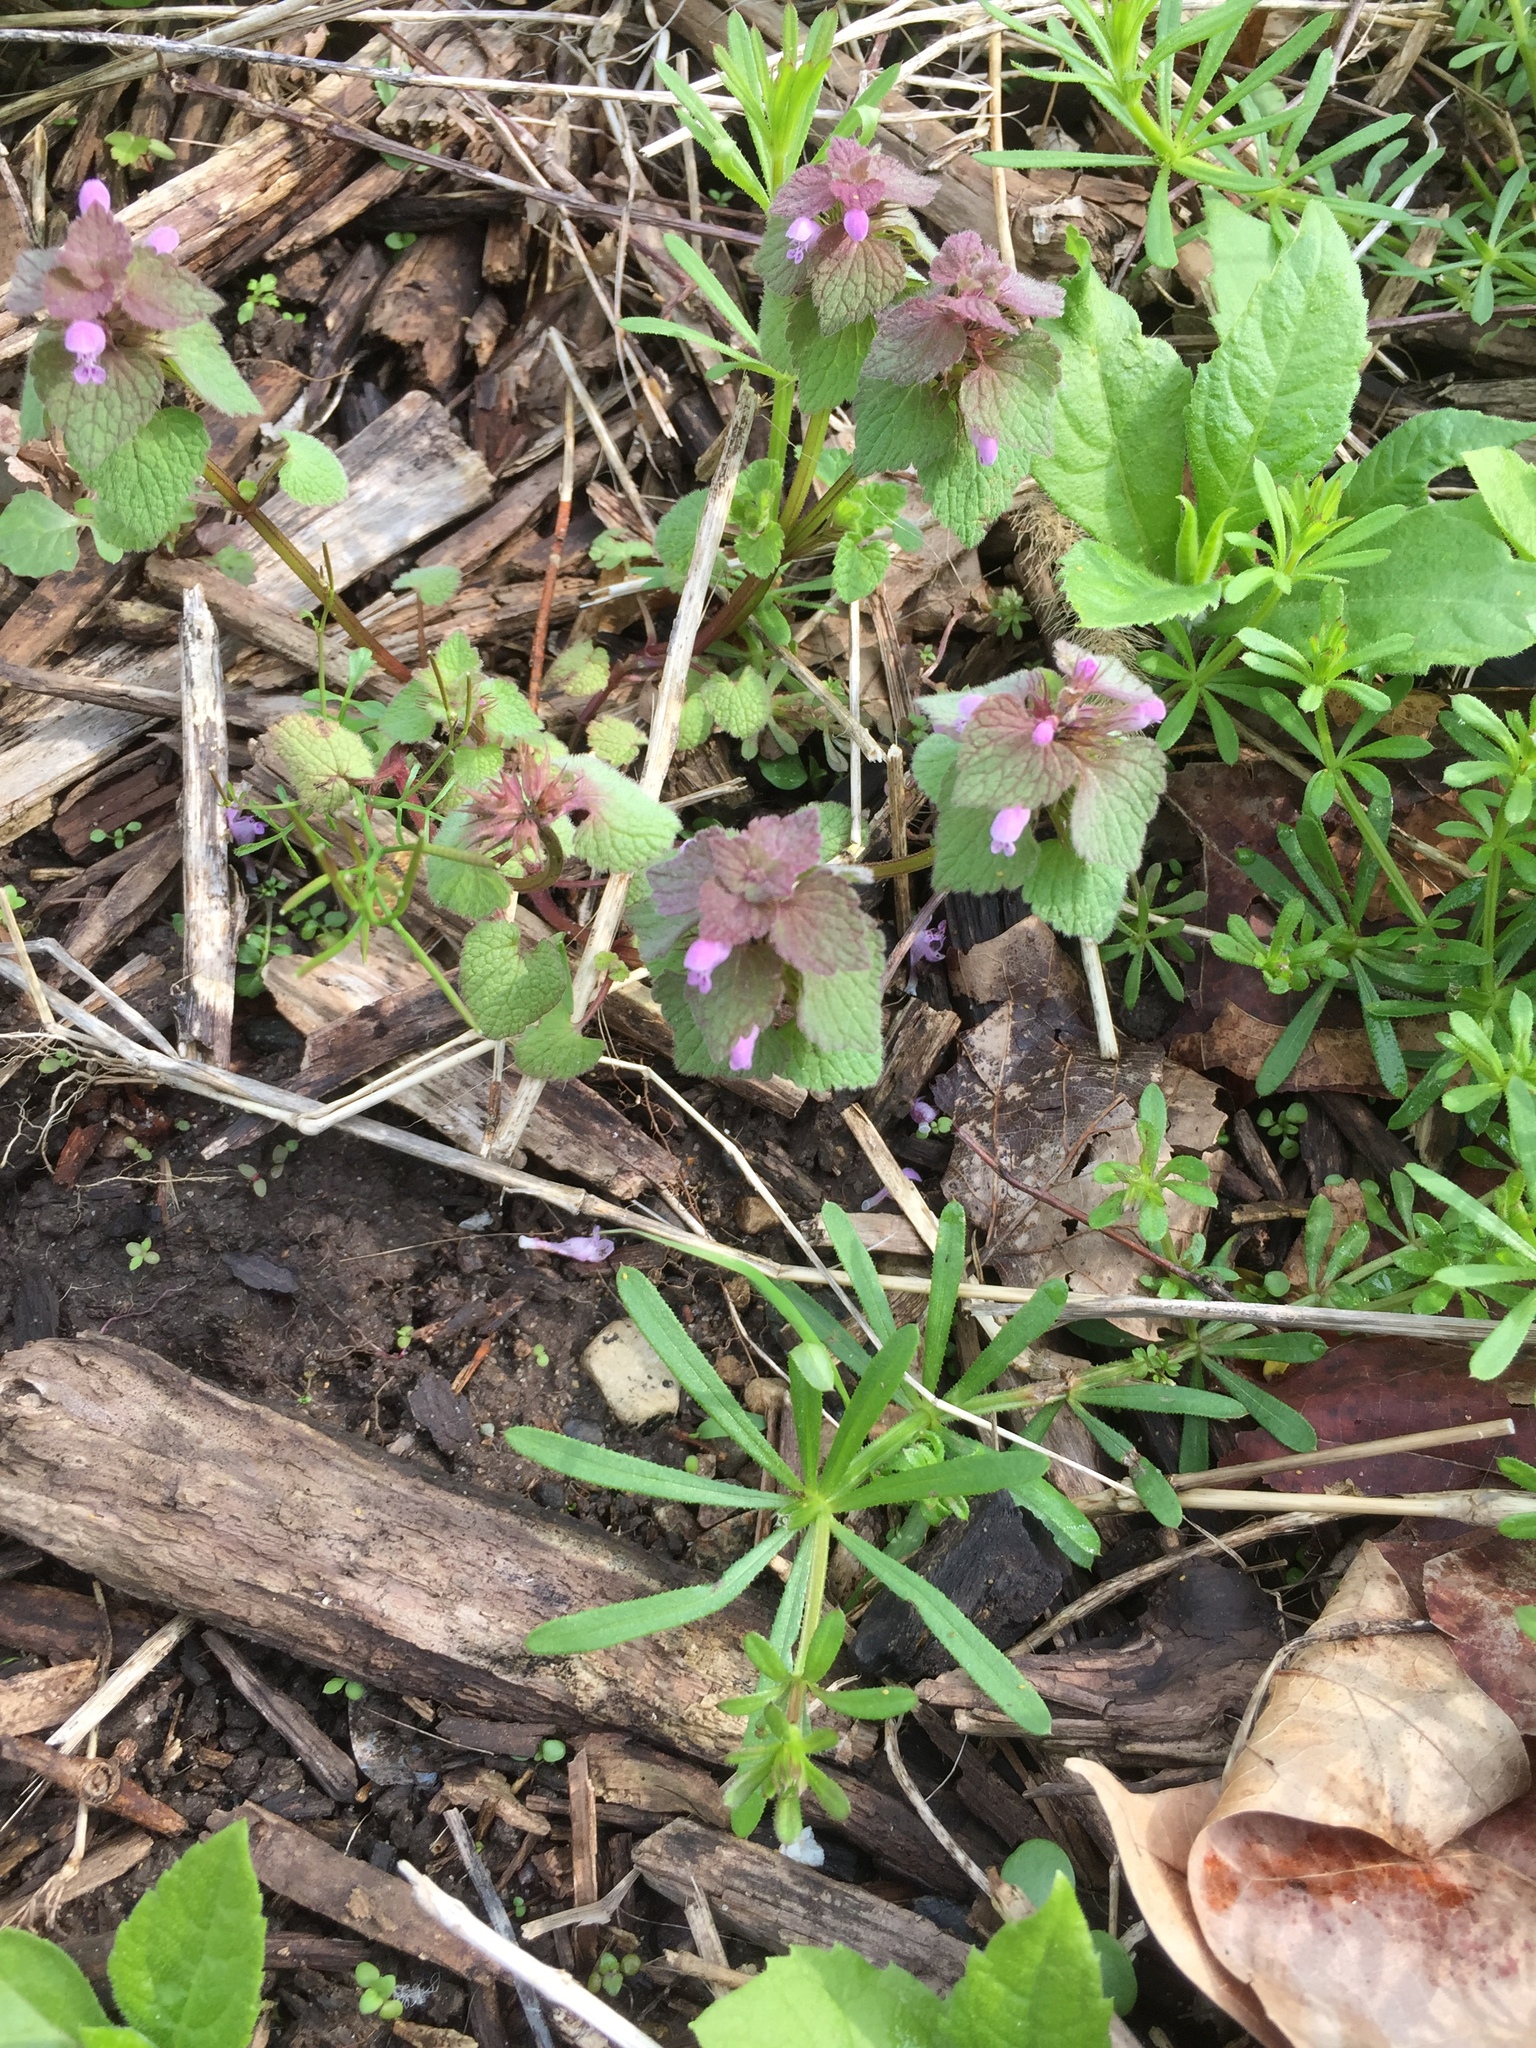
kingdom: Plantae
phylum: Tracheophyta
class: Magnoliopsida
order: Lamiales
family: Lamiaceae
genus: Lamium
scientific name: Lamium purpureum
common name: Red dead-nettle
